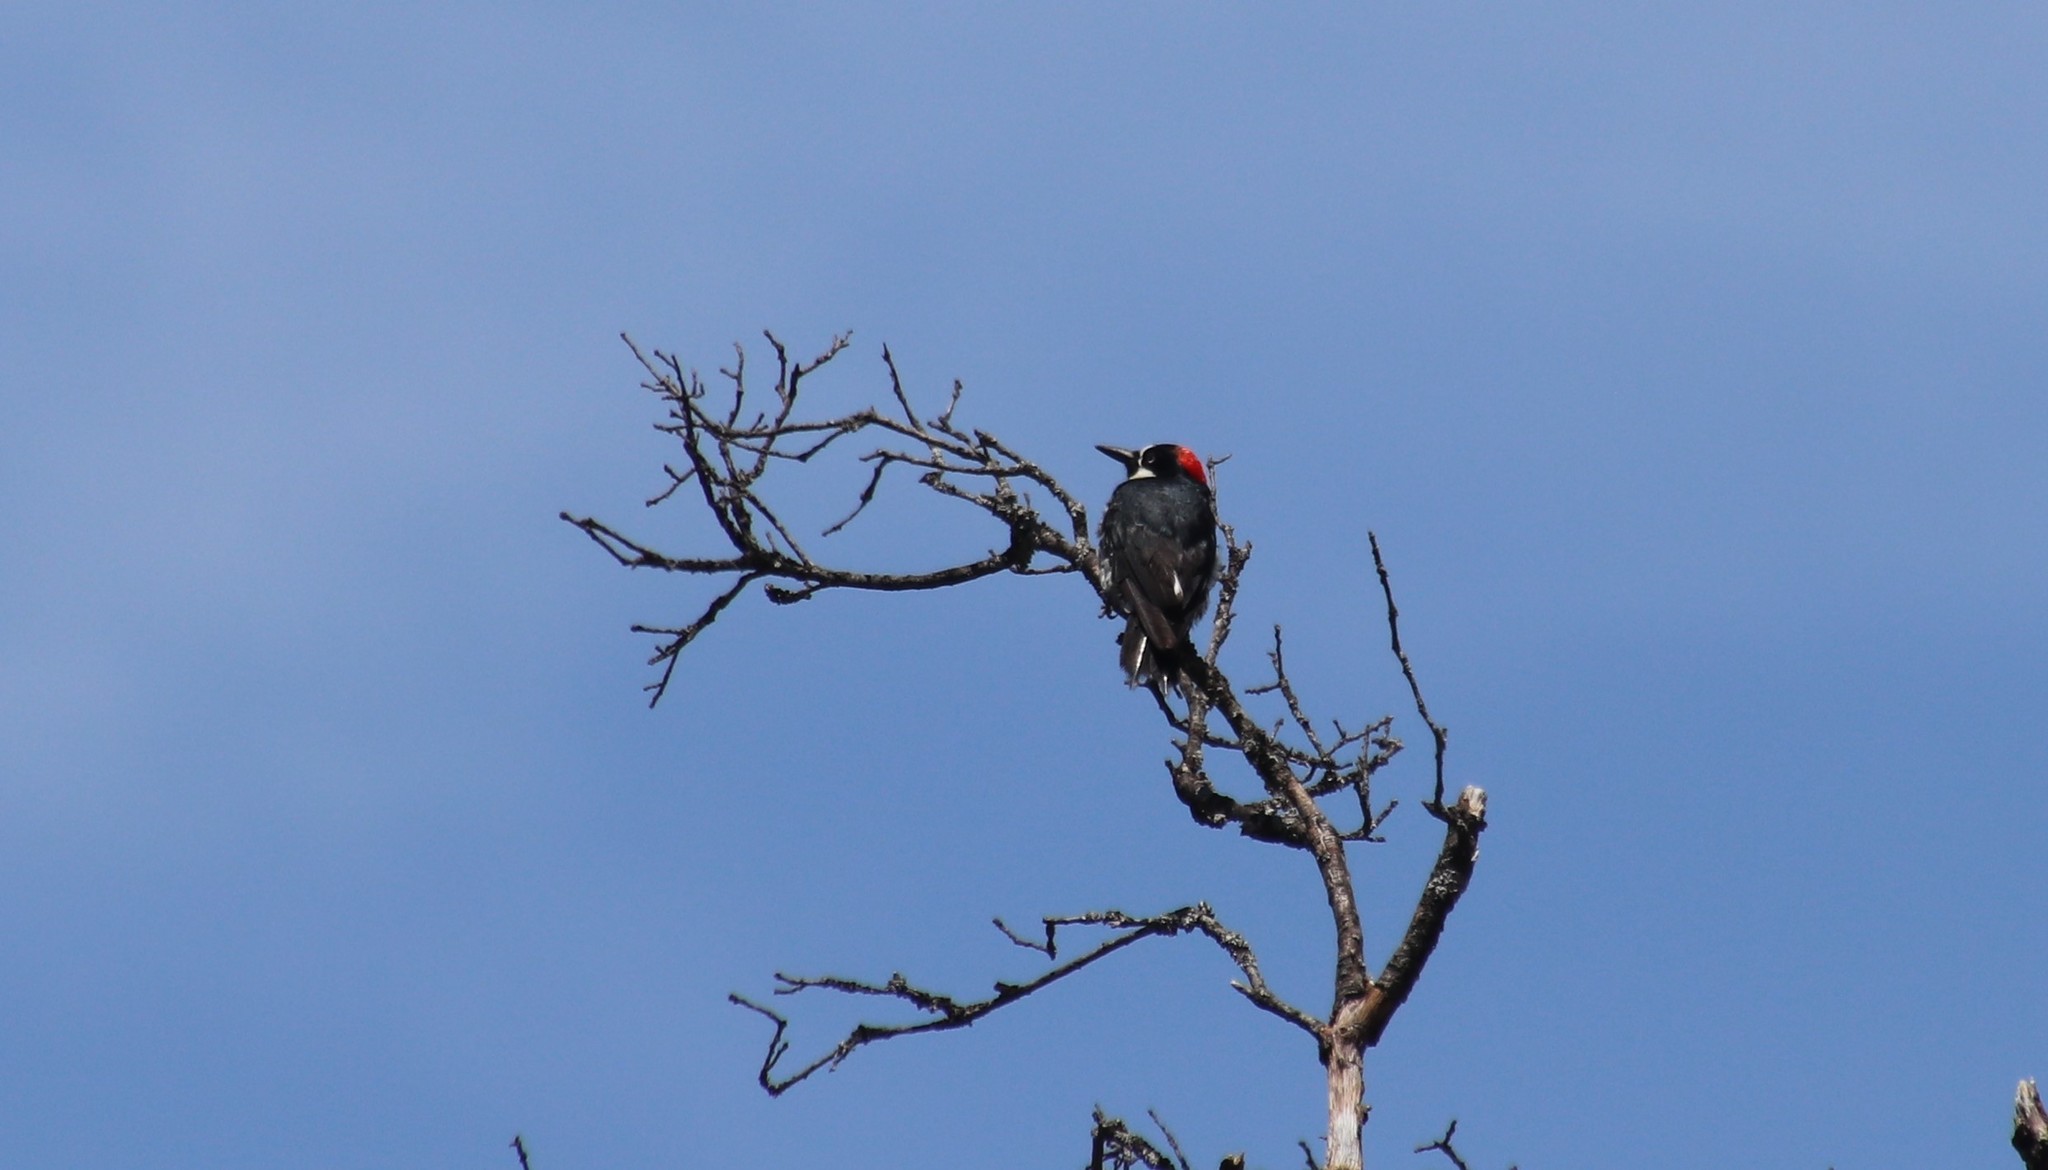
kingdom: Animalia
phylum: Chordata
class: Aves
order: Piciformes
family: Picidae
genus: Melanerpes
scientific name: Melanerpes formicivorus
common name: Acorn woodpecker
